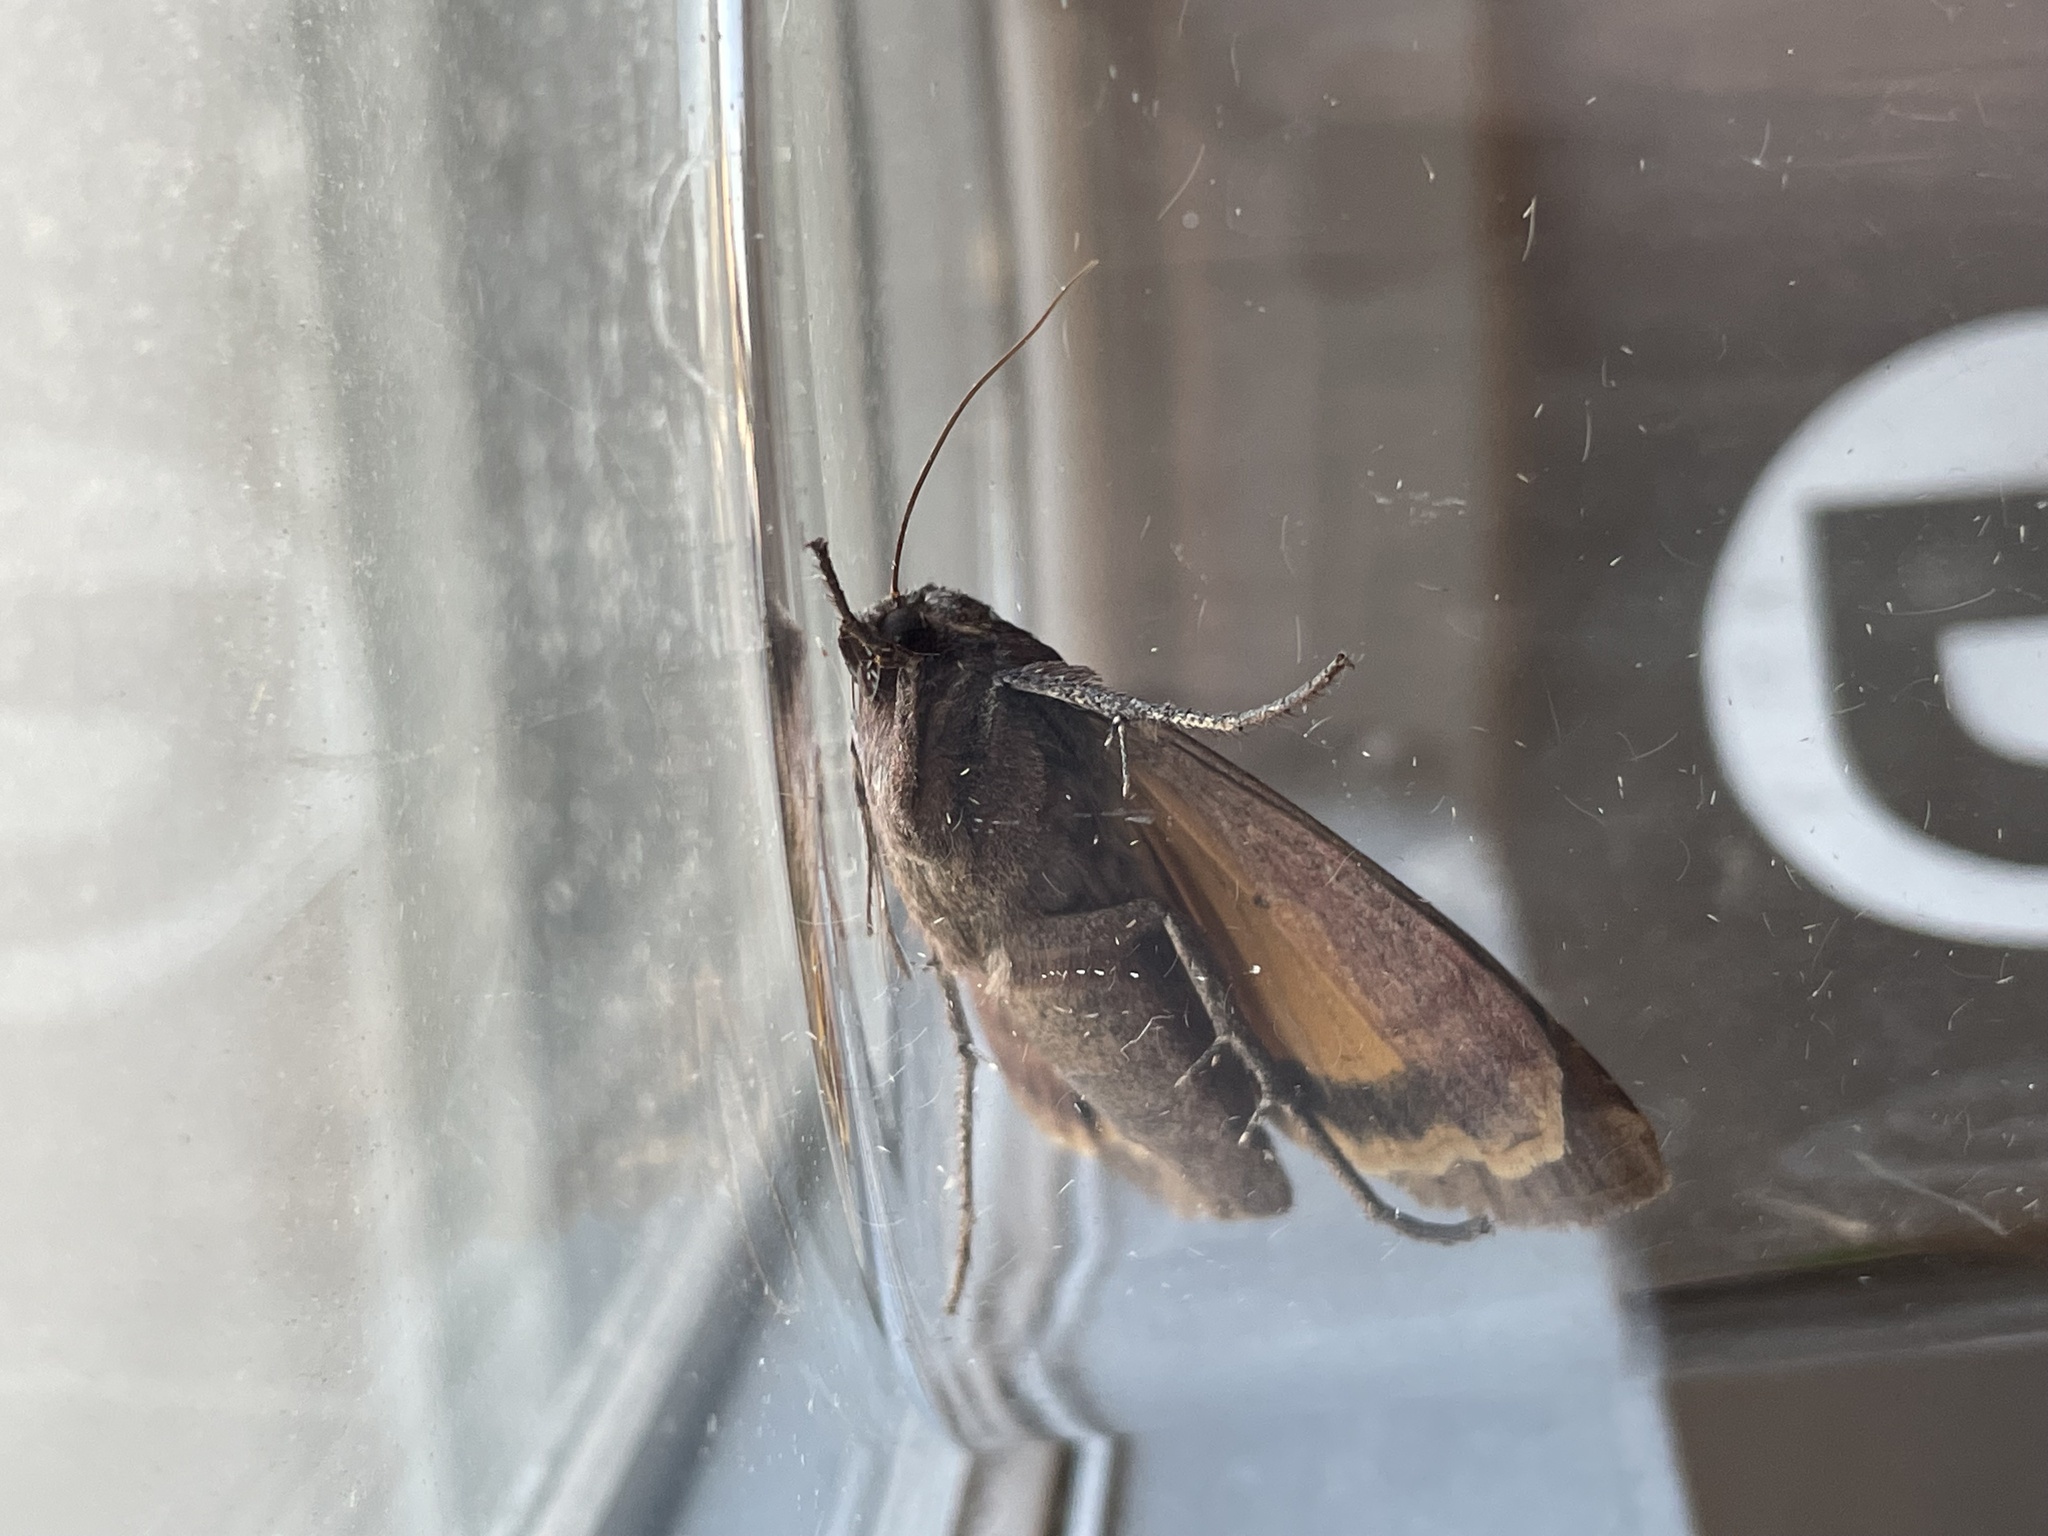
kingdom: Animalia
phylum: Arthropoda
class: Insecta
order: Lepidoptera
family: Noctuidae
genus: Noctua
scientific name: Noctua pronuba
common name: Large yellow underwing
